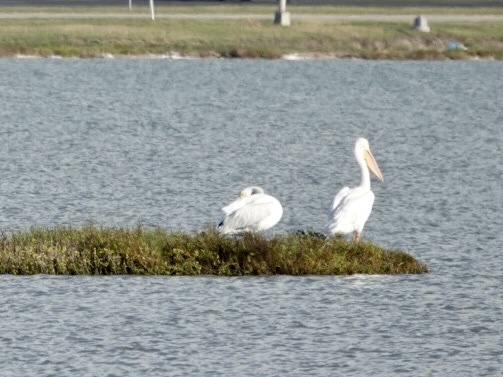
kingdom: Animalia
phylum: Chordata
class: Aves
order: Pelecaniformes
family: Pelecanidae
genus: Pelecanus
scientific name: Pelecanus erythrorhynchos
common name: American white pelican
